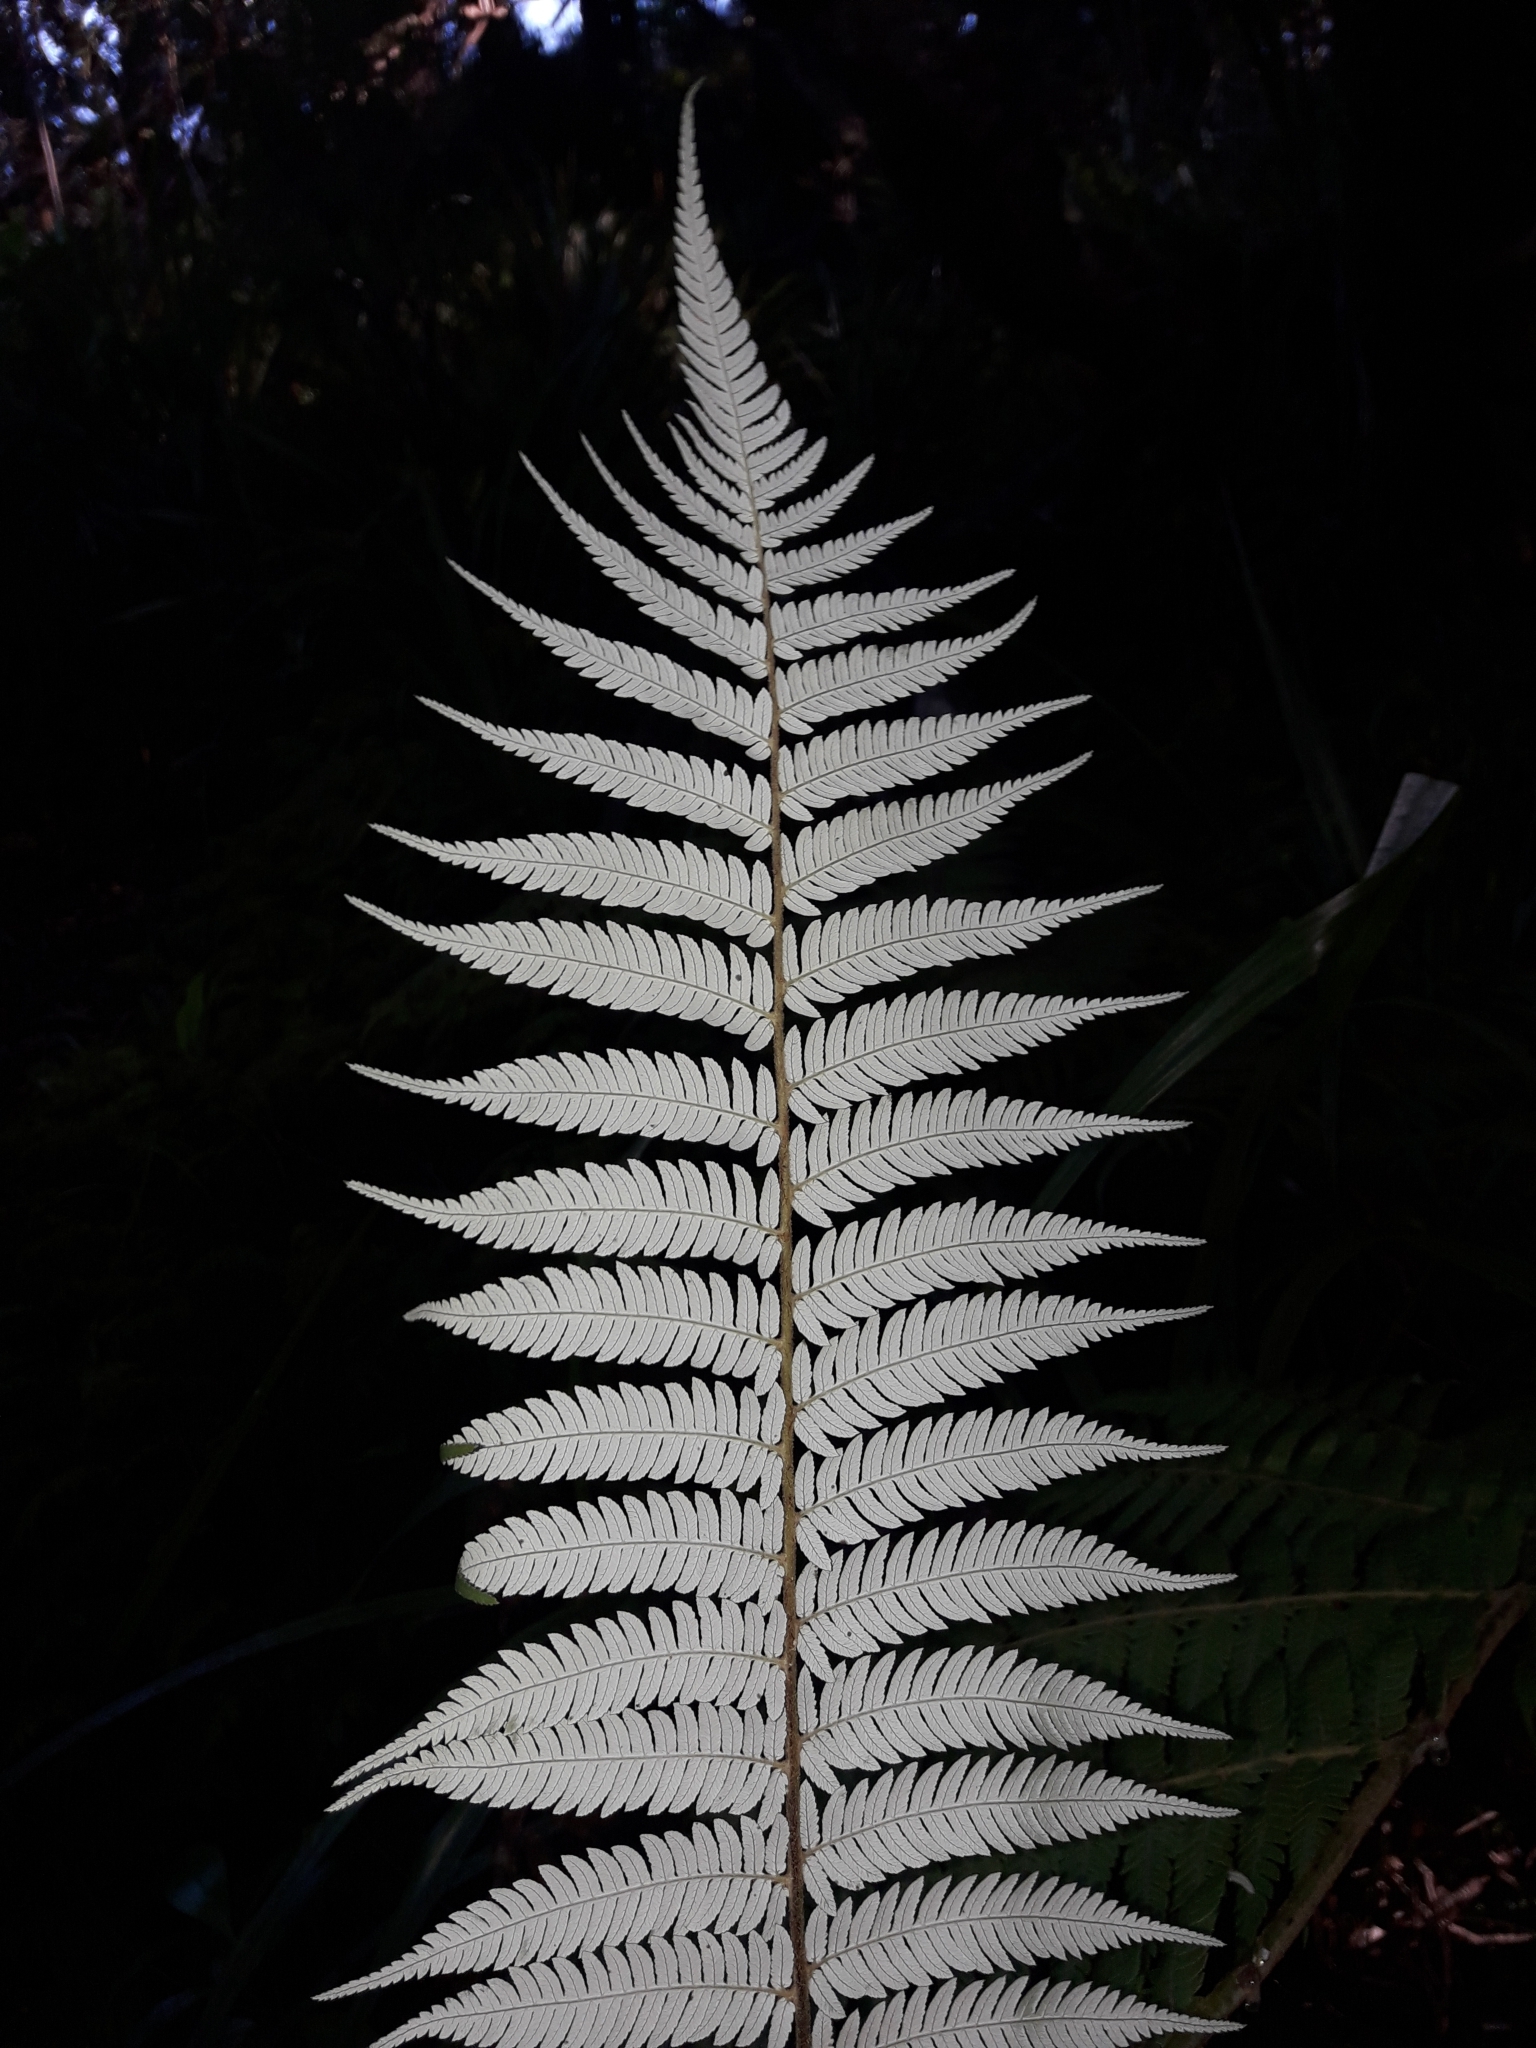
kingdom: Plantae
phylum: Tracheophyta
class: Polypodiopsida
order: Cyatheales
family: Cyatheaceae
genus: Alsophila
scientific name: Alsophila dealbata
